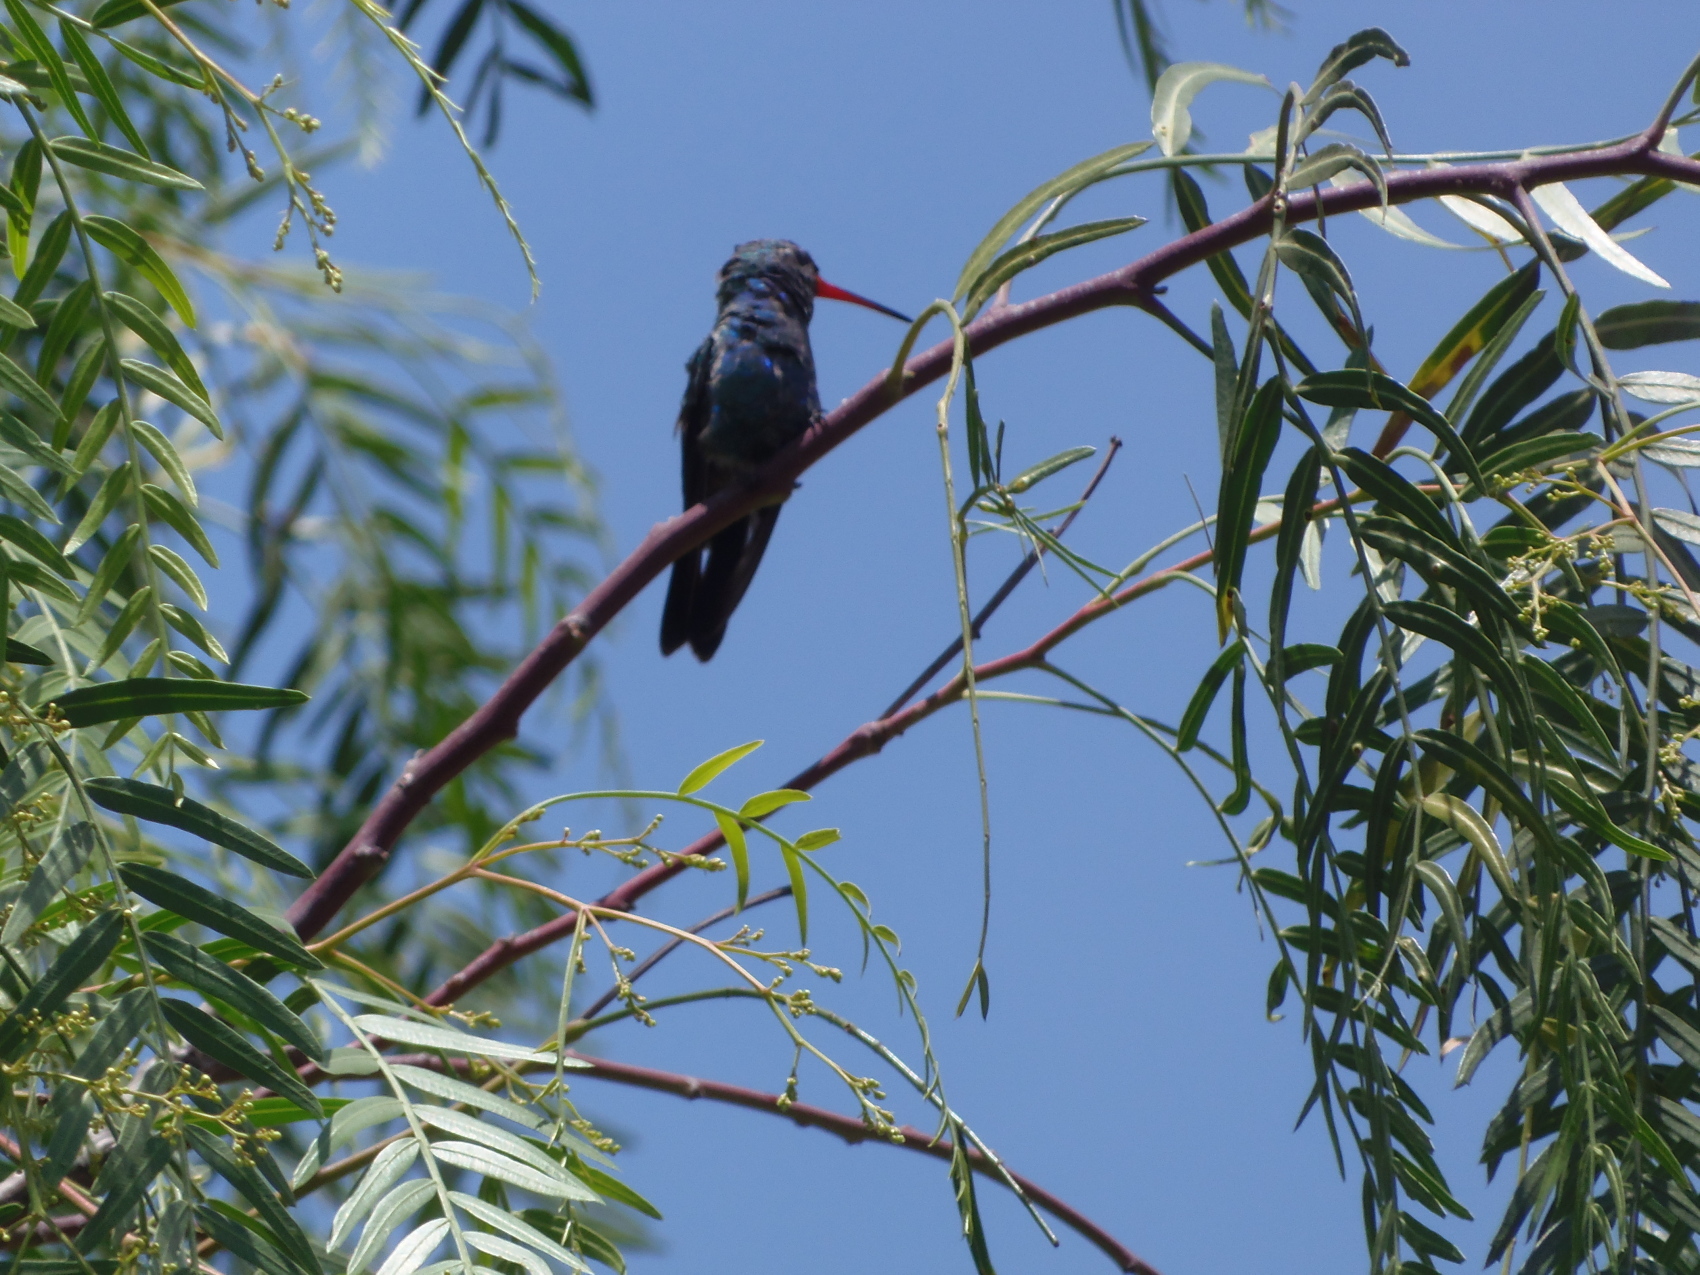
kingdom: Animalia
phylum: Chordata
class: Aves
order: Apodiformes
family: Trochilidae
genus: Cynanthus
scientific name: Cynanthus latirostris
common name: Broad-billed hummingbird
